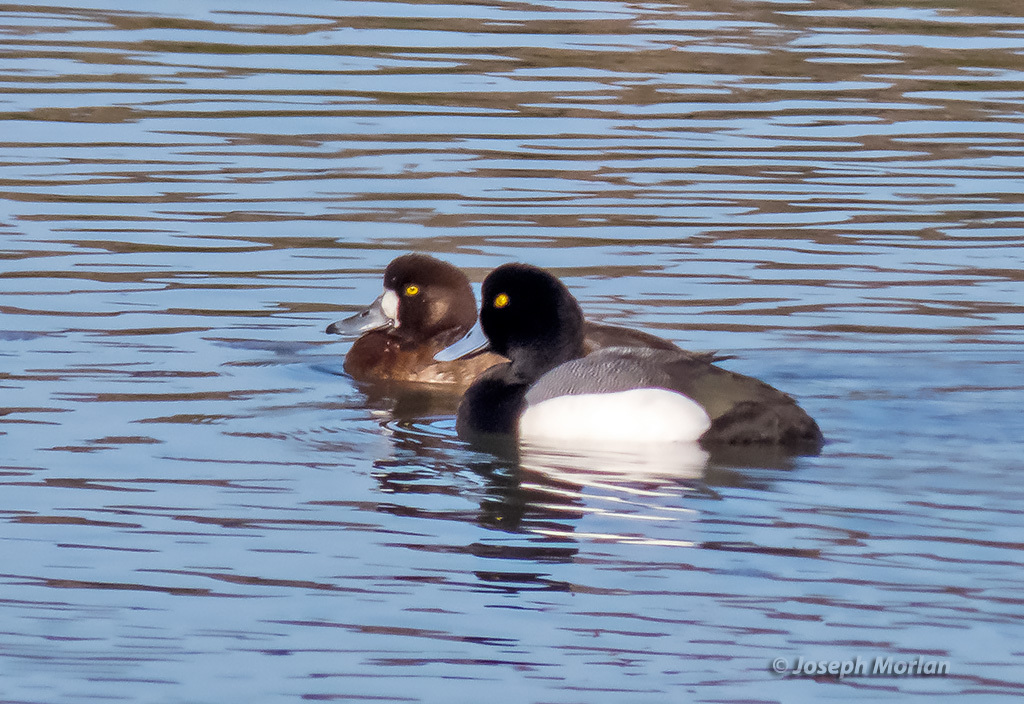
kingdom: Animalia
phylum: Chordata
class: Aves
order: Anseriformes
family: Anatidae
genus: Aythya
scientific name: Aythya marila
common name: Greater scaup
